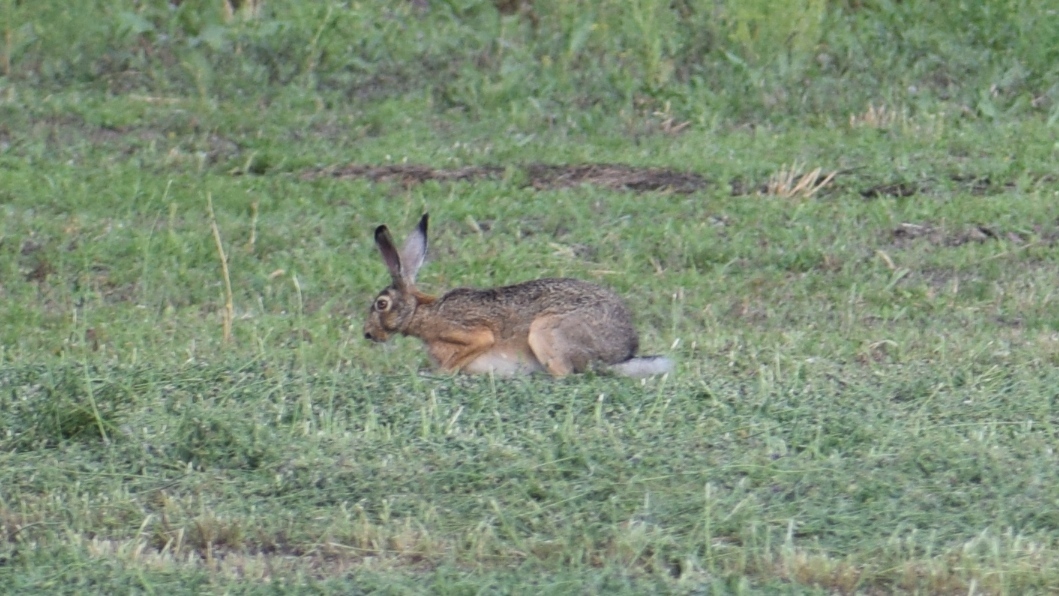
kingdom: Animalia
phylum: Chordata
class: Mammalia
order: Lagomorpha
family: Leporidae
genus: Lepus
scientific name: Lepus europaeus
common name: European hare
